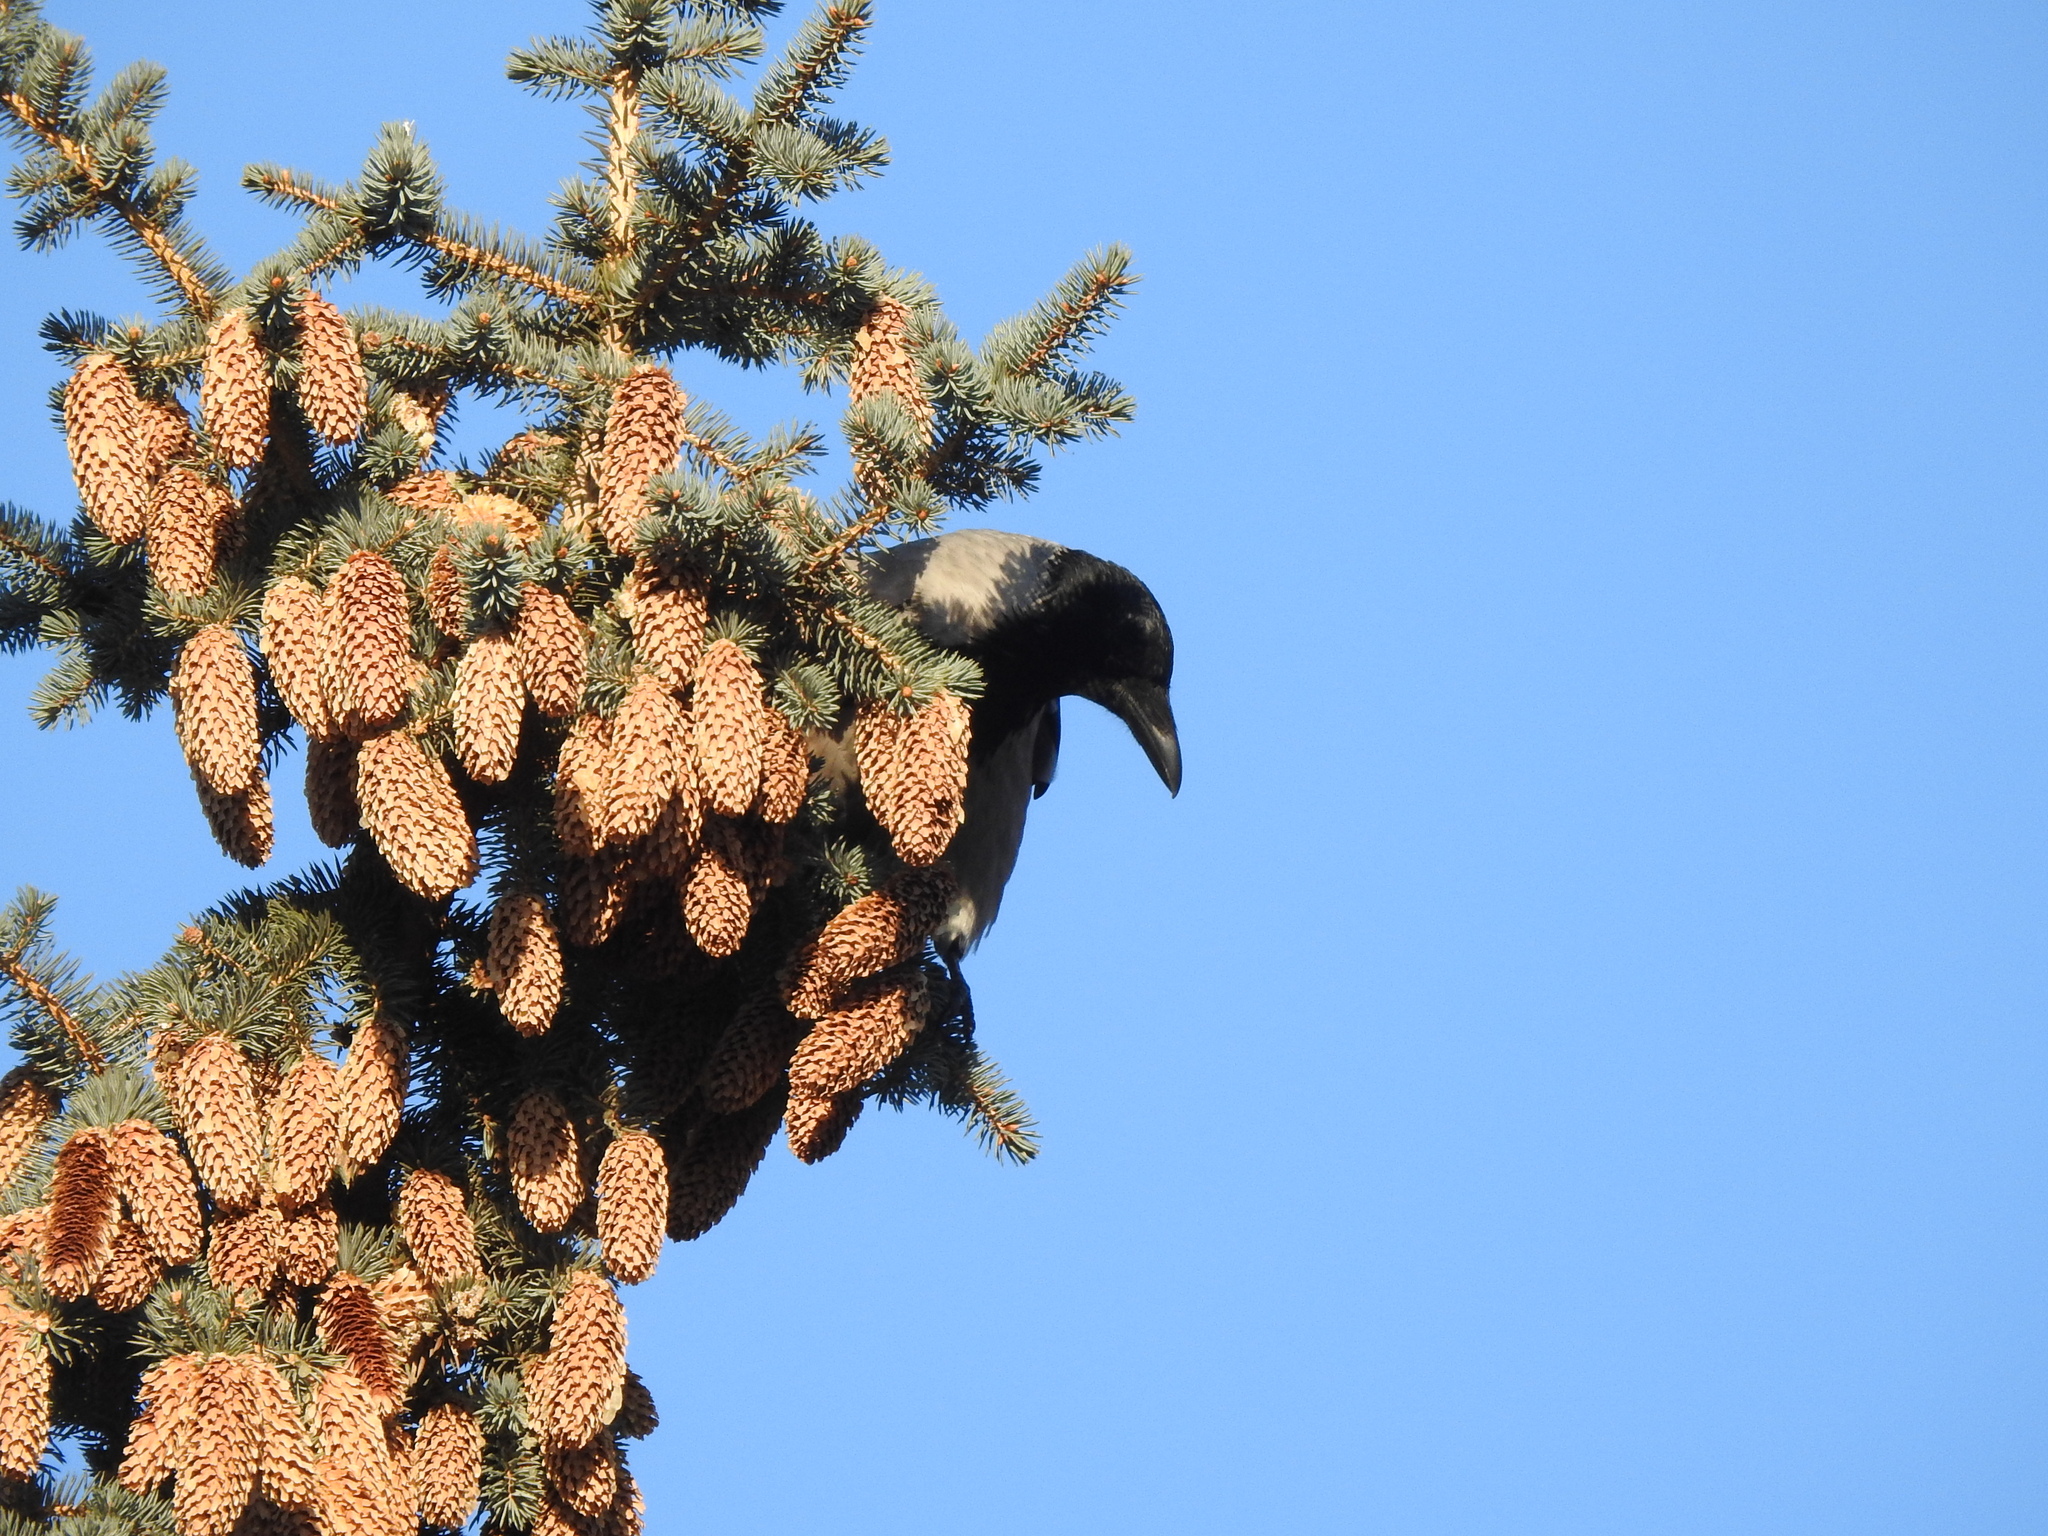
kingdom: Animalia
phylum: Chordata
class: Aves
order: Passeriformes
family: Corvidae
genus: Corvus
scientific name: Corvus cornix
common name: Hooded crow
